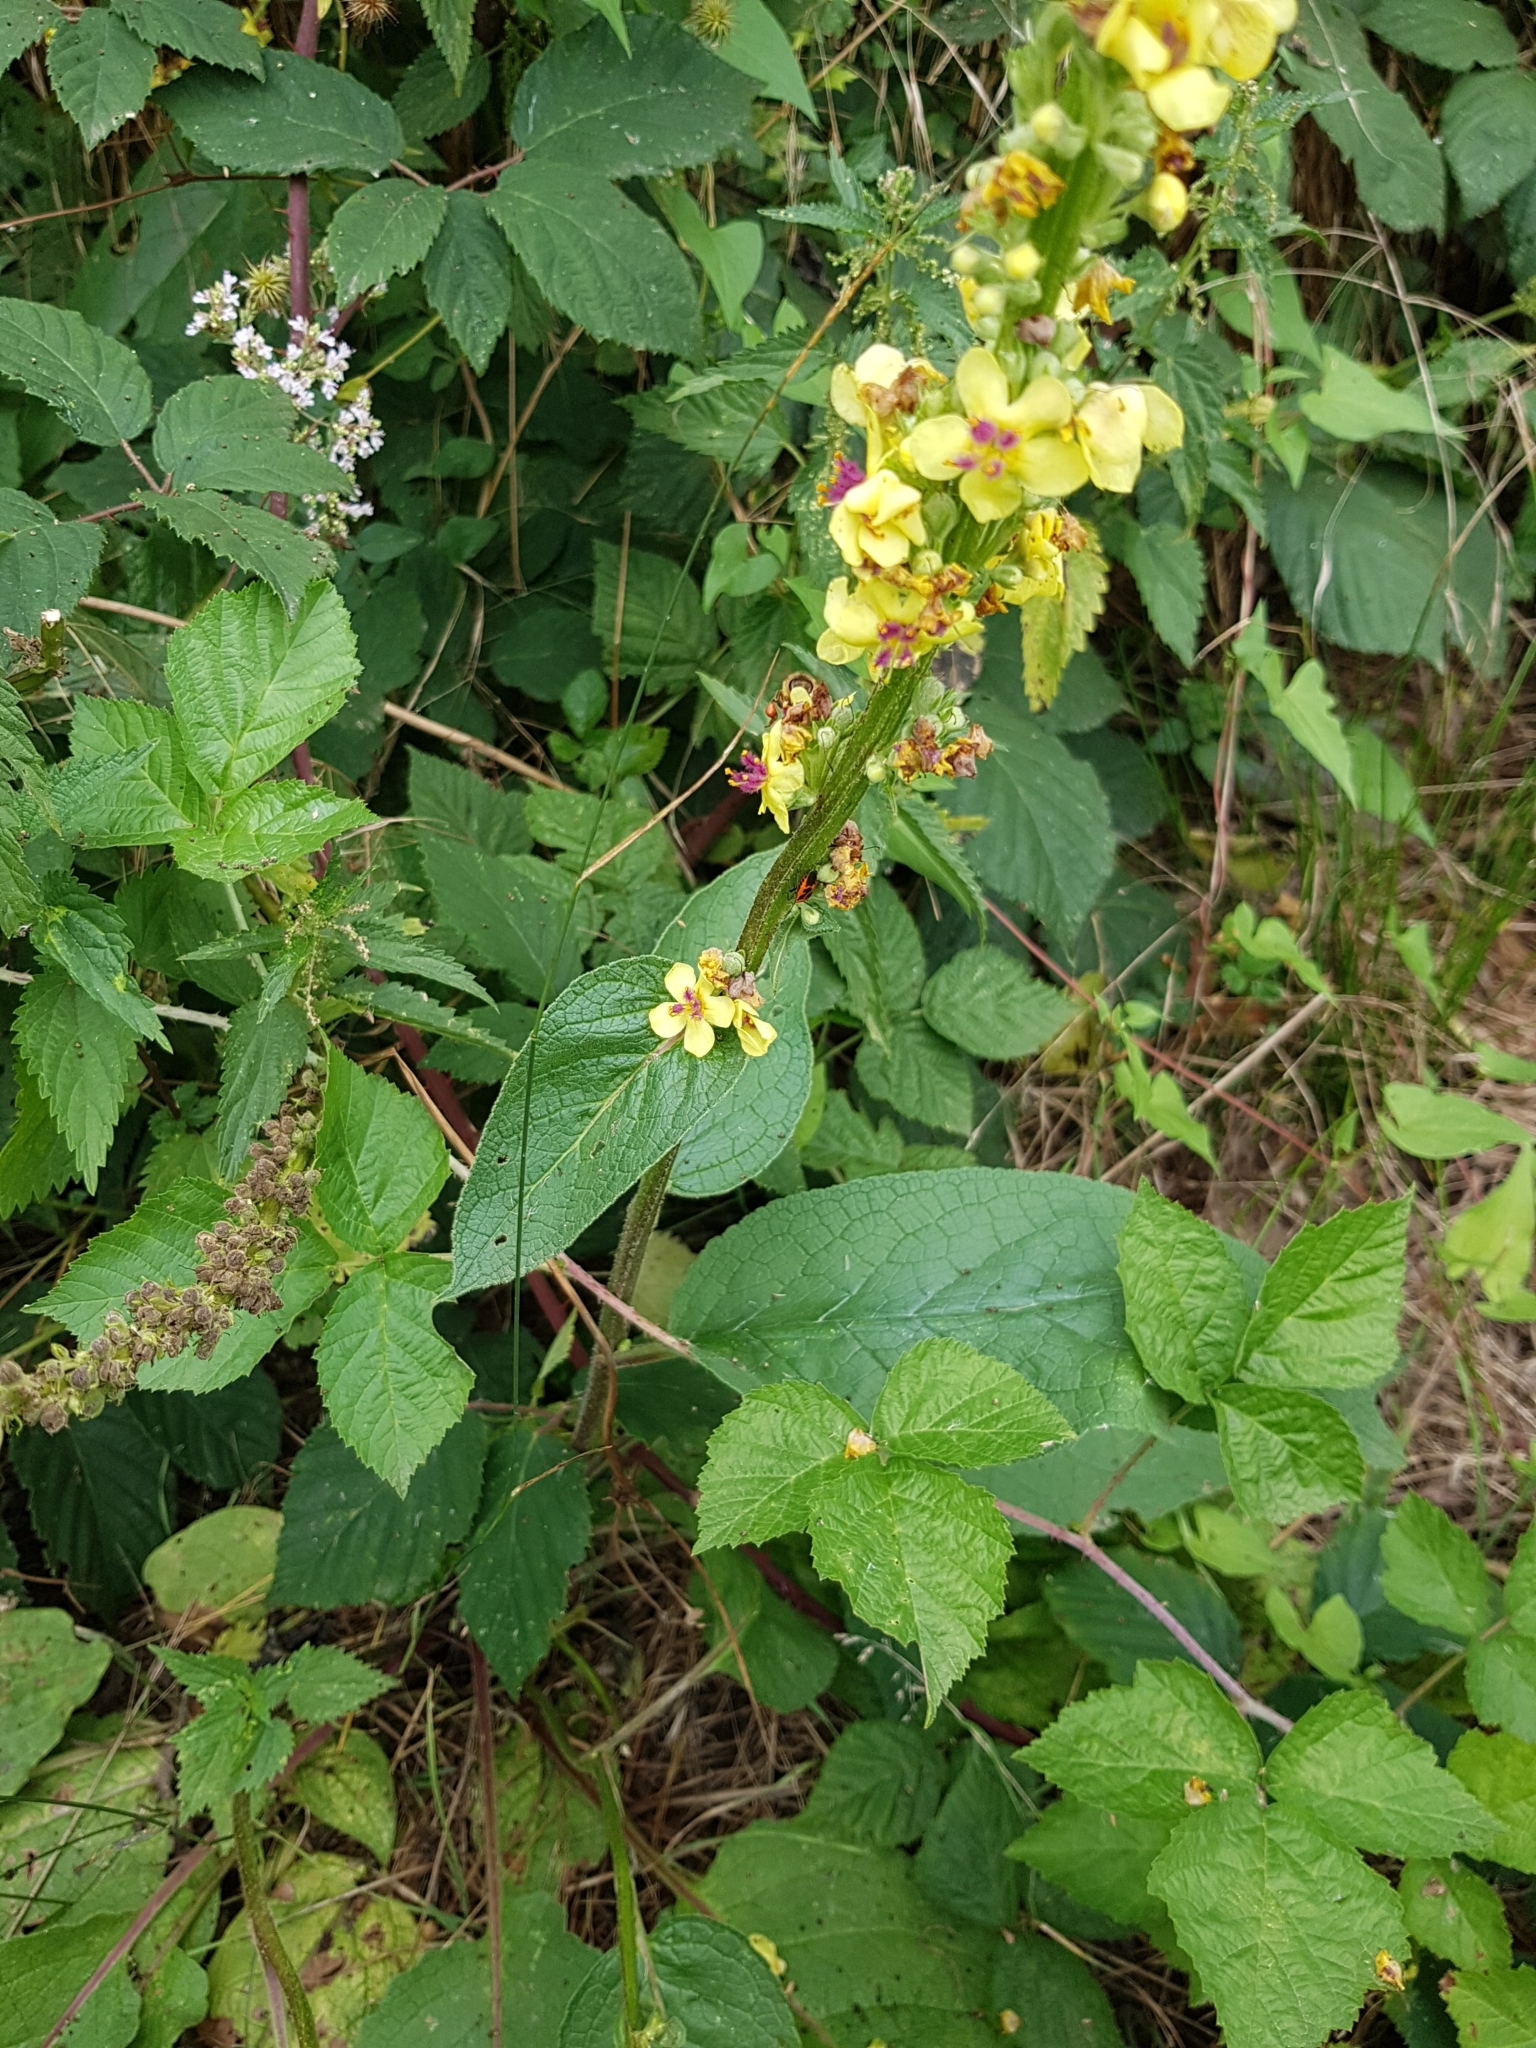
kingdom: Plantae
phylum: Tracheophyta
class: Magnoliopsida
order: Lamiales
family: Scrophulariaceae
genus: Verbascum
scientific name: Verbascum nigrum
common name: Dark mullein
